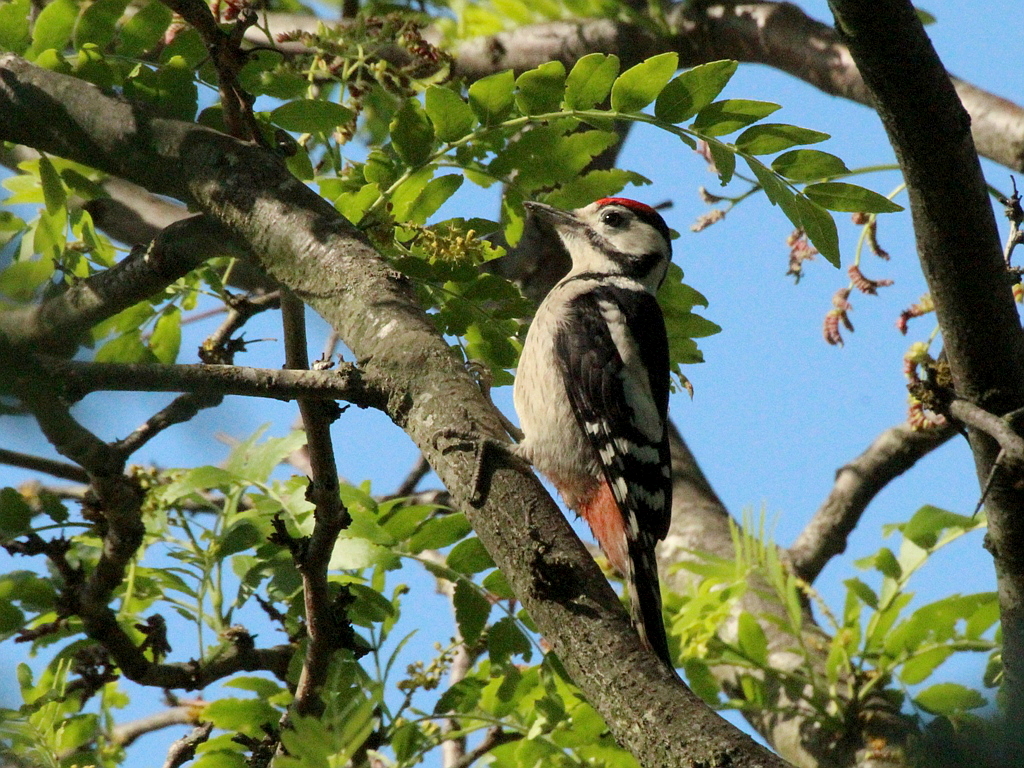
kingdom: Animalia
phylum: Chordata
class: Aves
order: Piciformes
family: Picidae
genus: Dendrocopos
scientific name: Dendrocopos major
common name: Great spotted woodpecker
